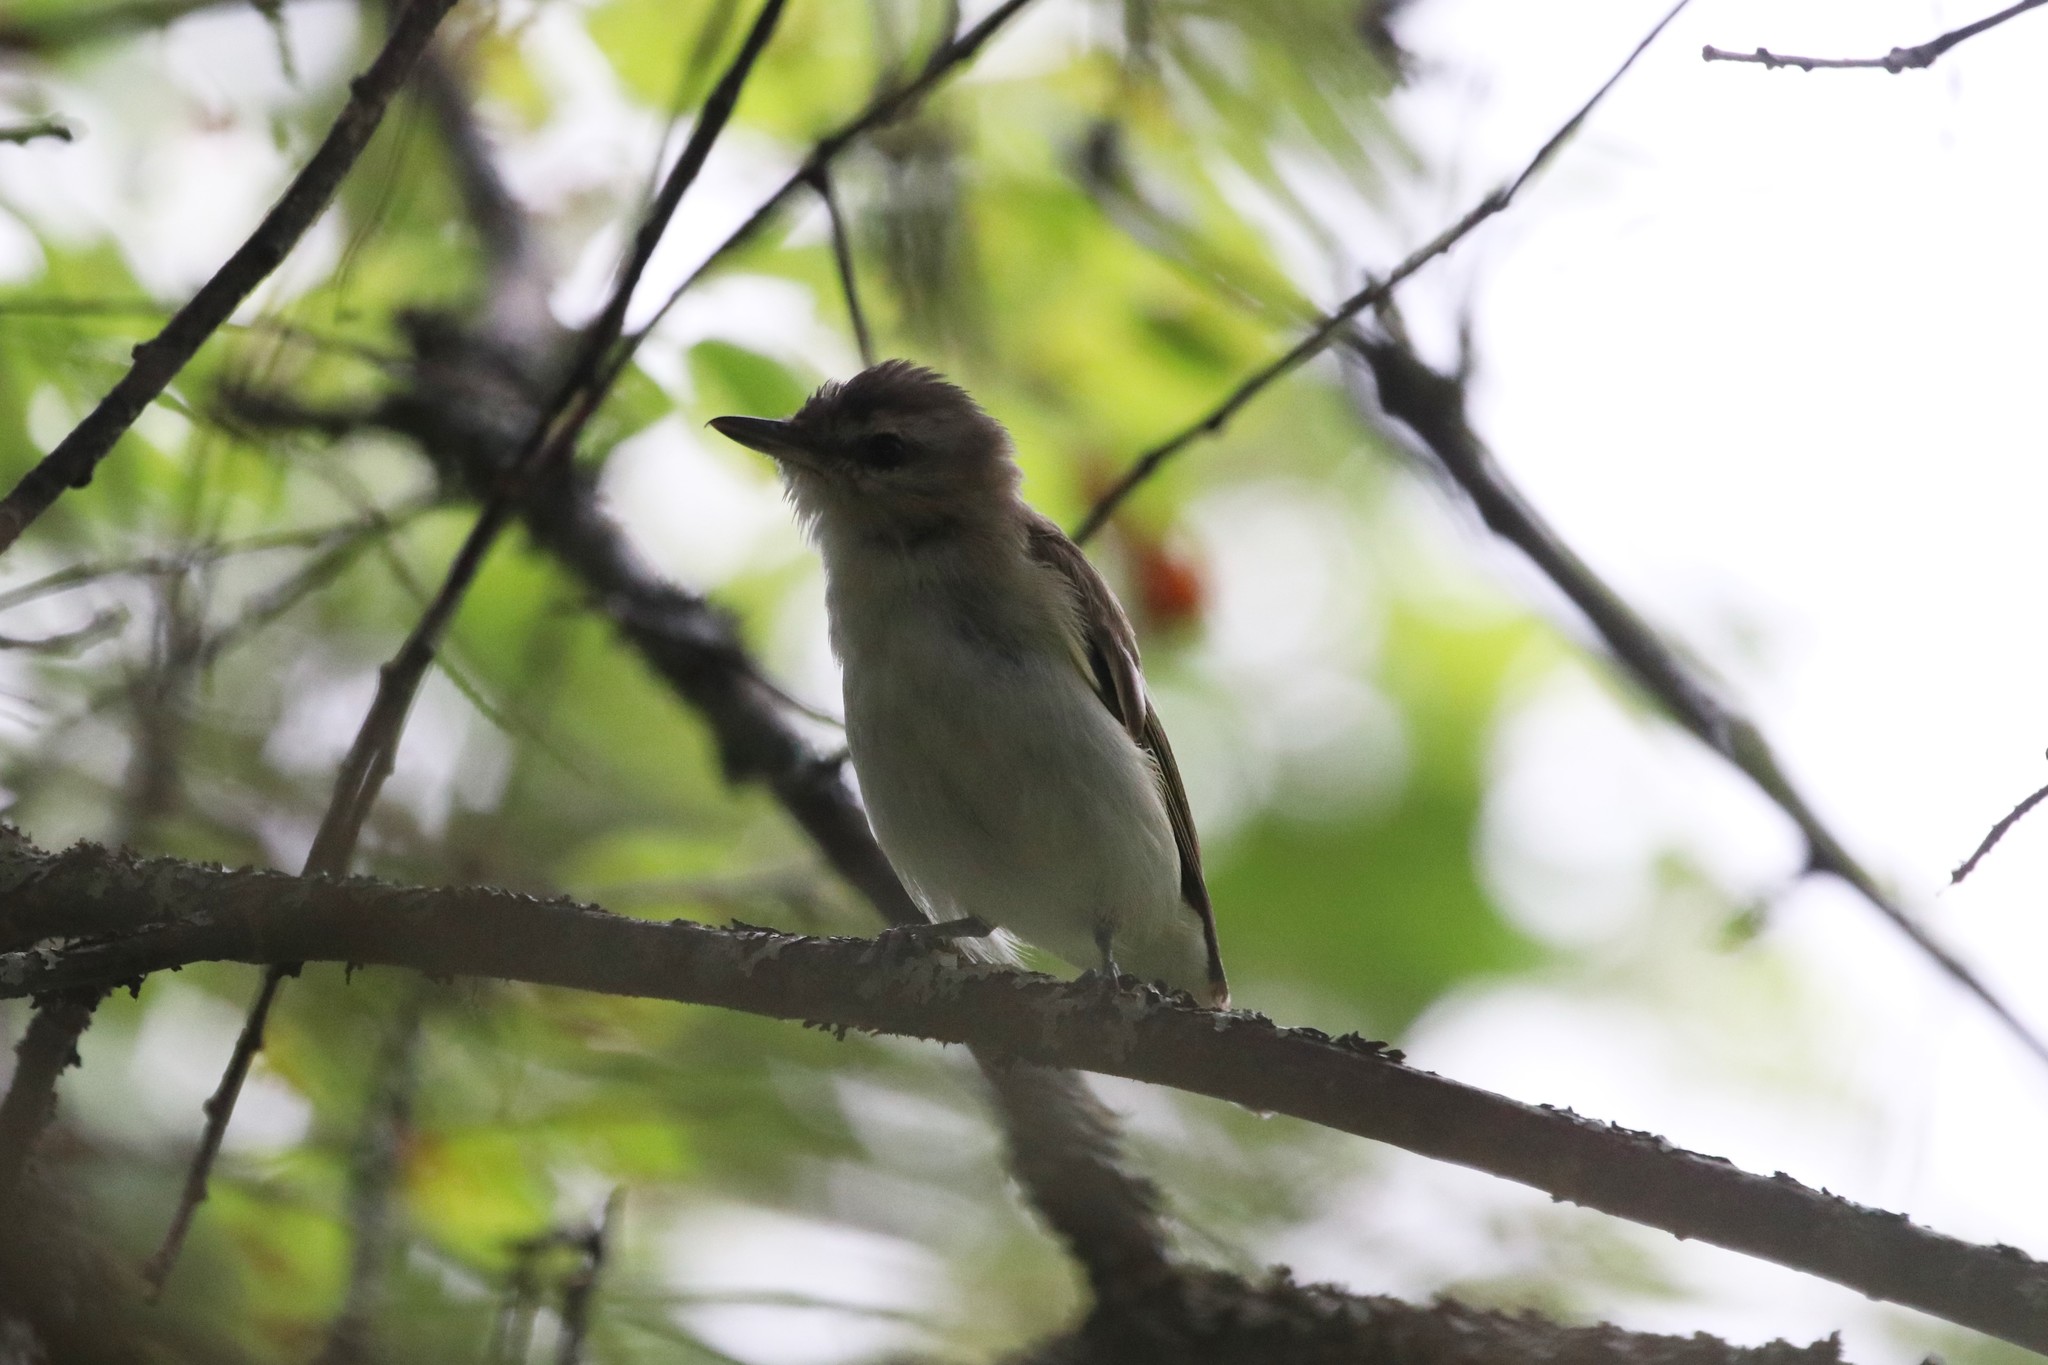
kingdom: Animalia
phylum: Chordata
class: Aves
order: Passeriformes
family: Vireonidae
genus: Vireo
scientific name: Vireo olivaceus
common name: Red-eyed vireo
